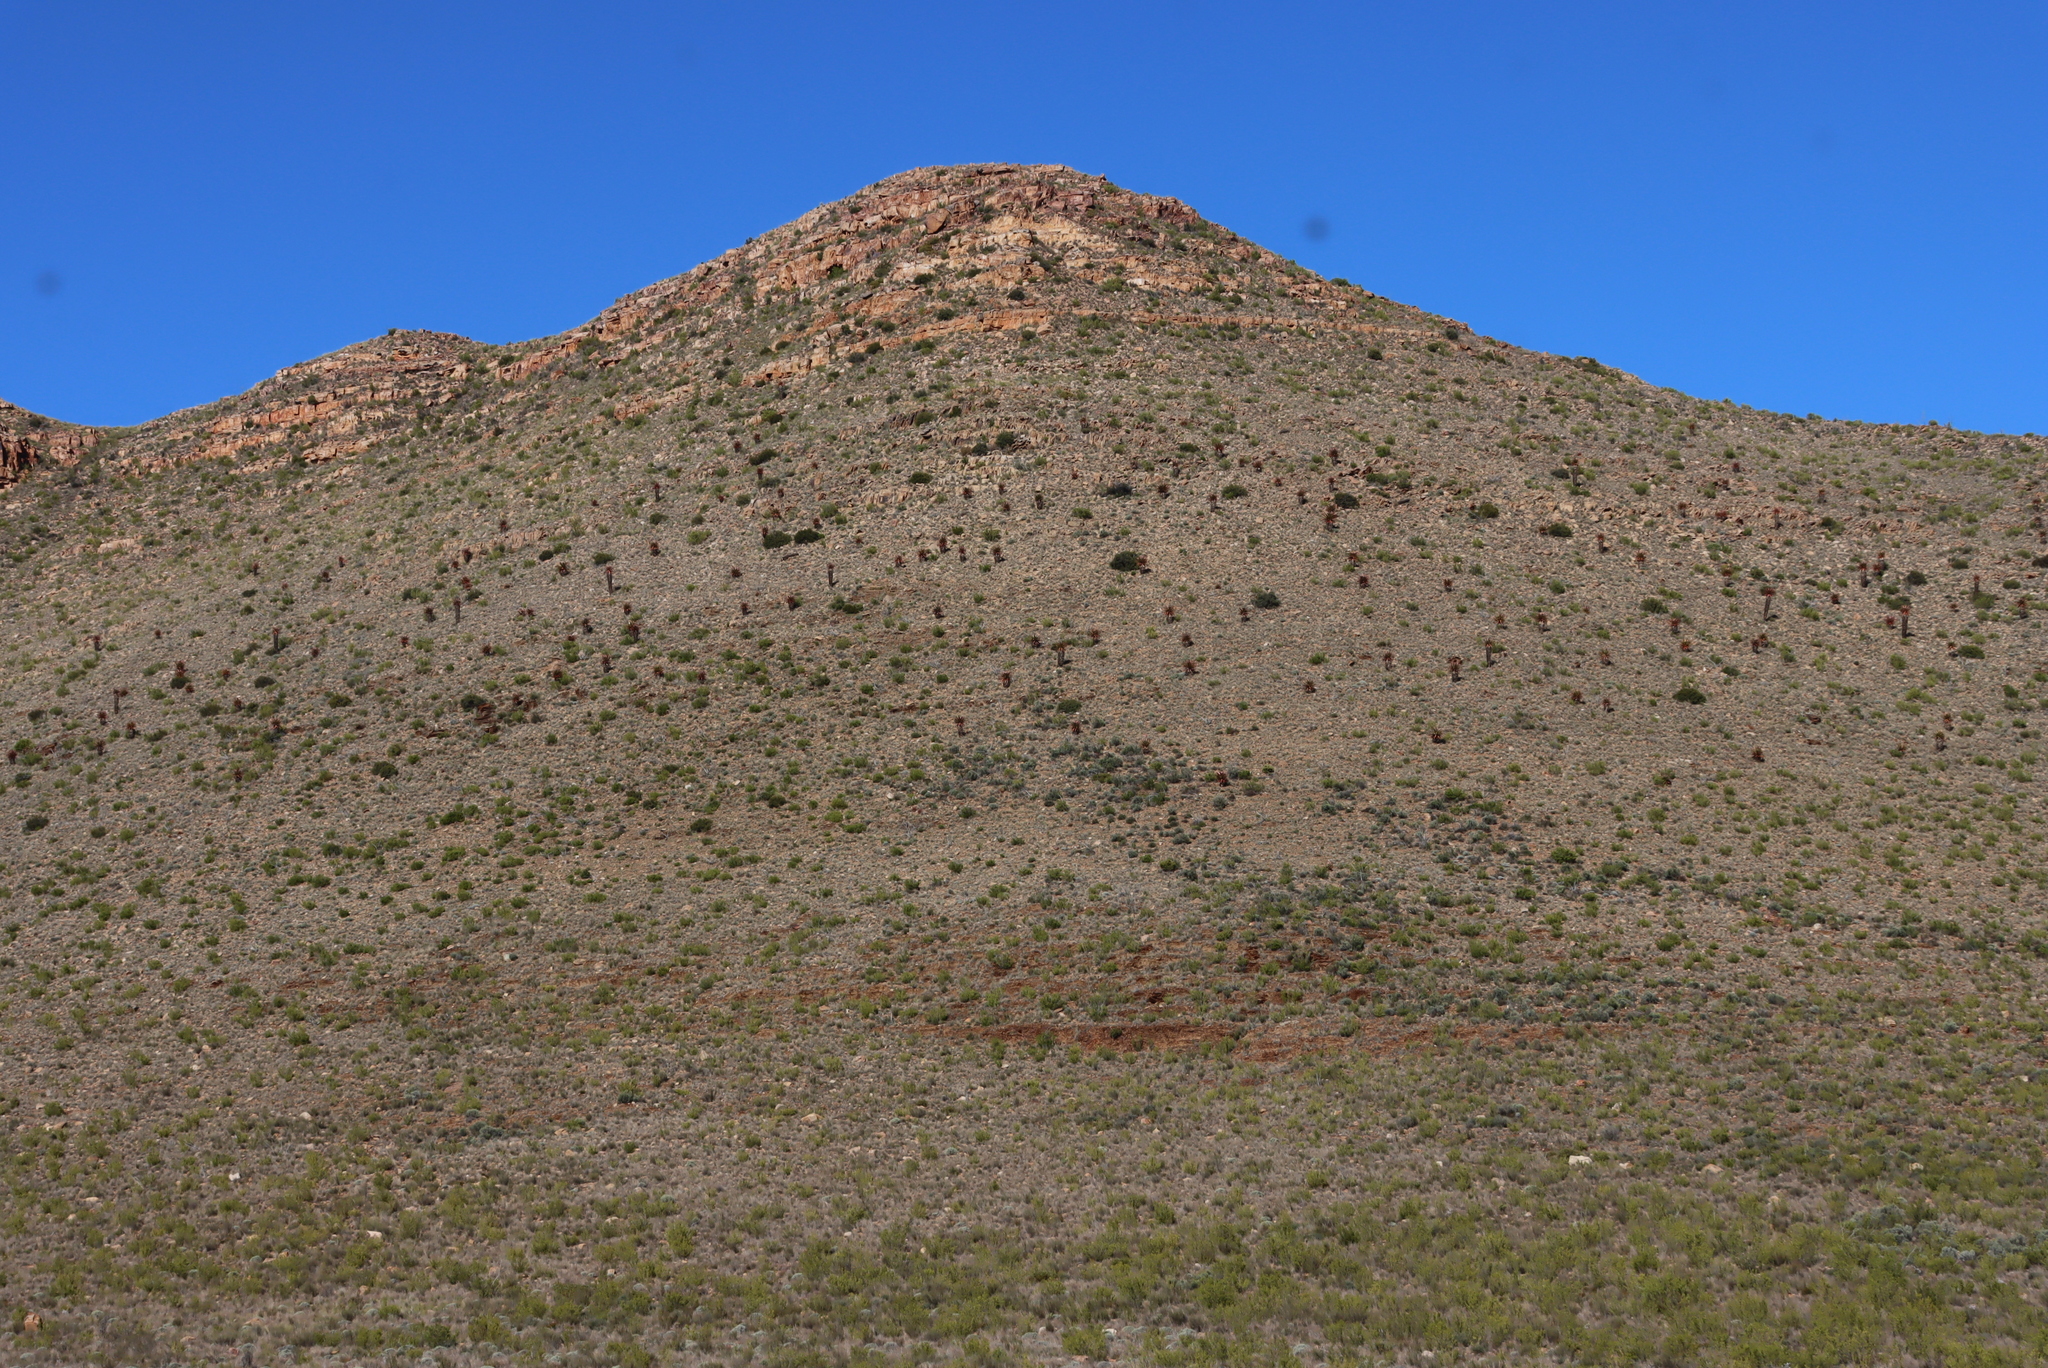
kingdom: Plantae
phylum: Tracheophyta
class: Liliopsida
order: Asparagales
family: Asphodelaceae
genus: Aloe
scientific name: Aloe ferox
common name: Bitter aloe
